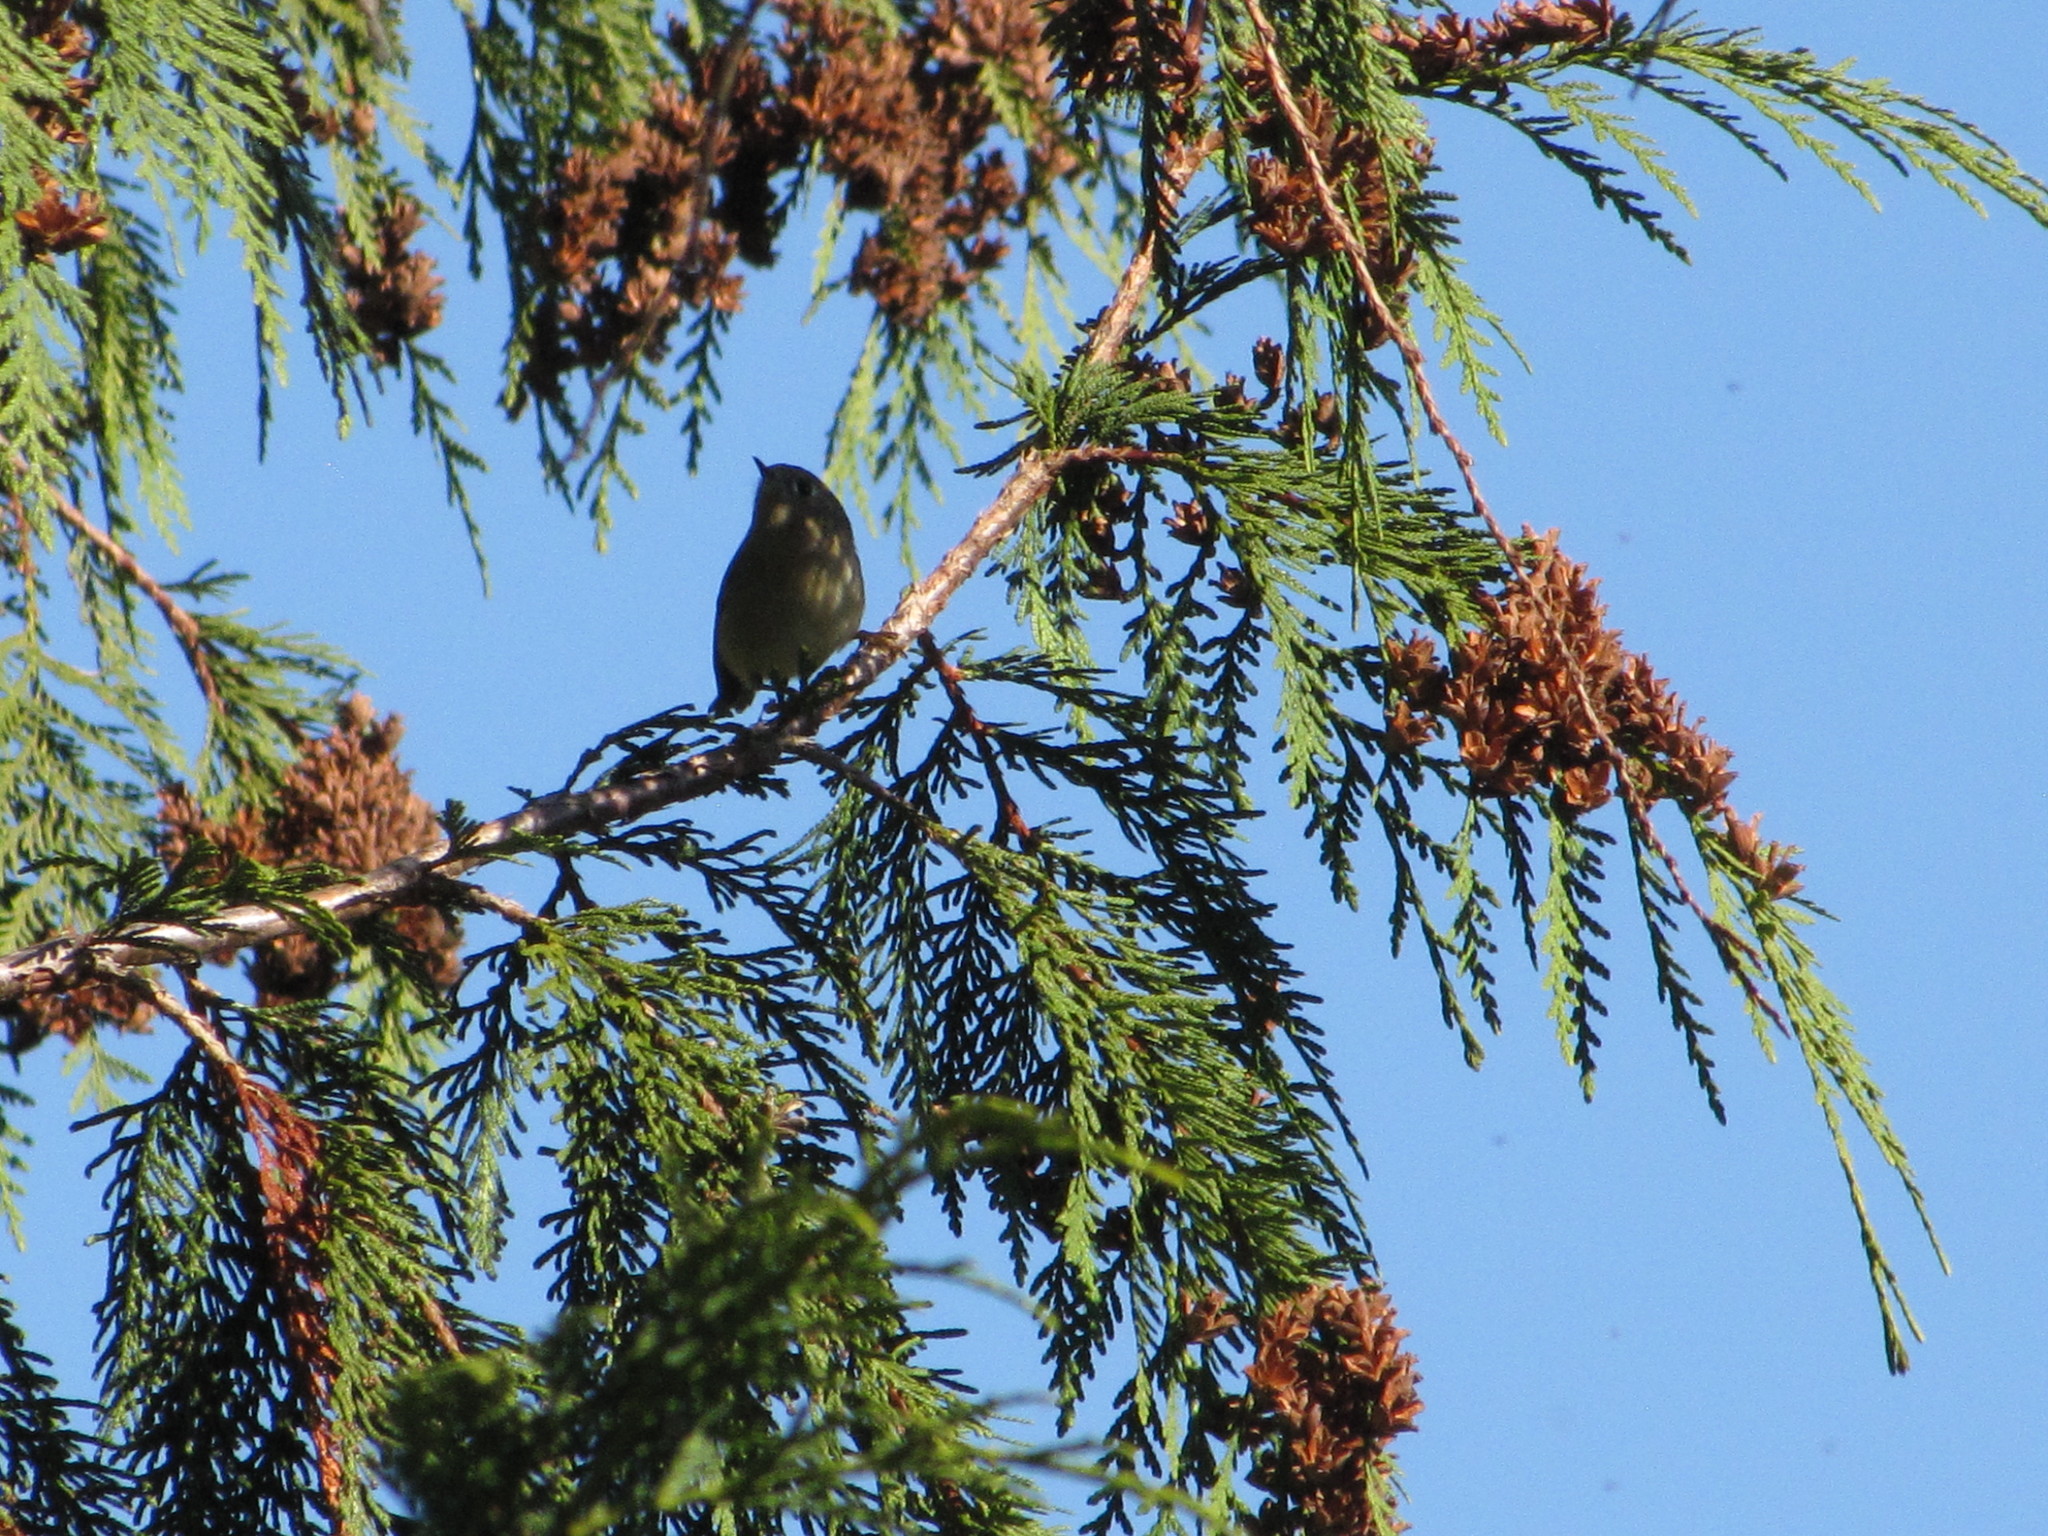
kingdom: Animalia
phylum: Chordata
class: Aves
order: Passeriformes
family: Regulidae
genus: Regulus
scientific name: Regulus calendula
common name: Ruby-crowned kinglet
